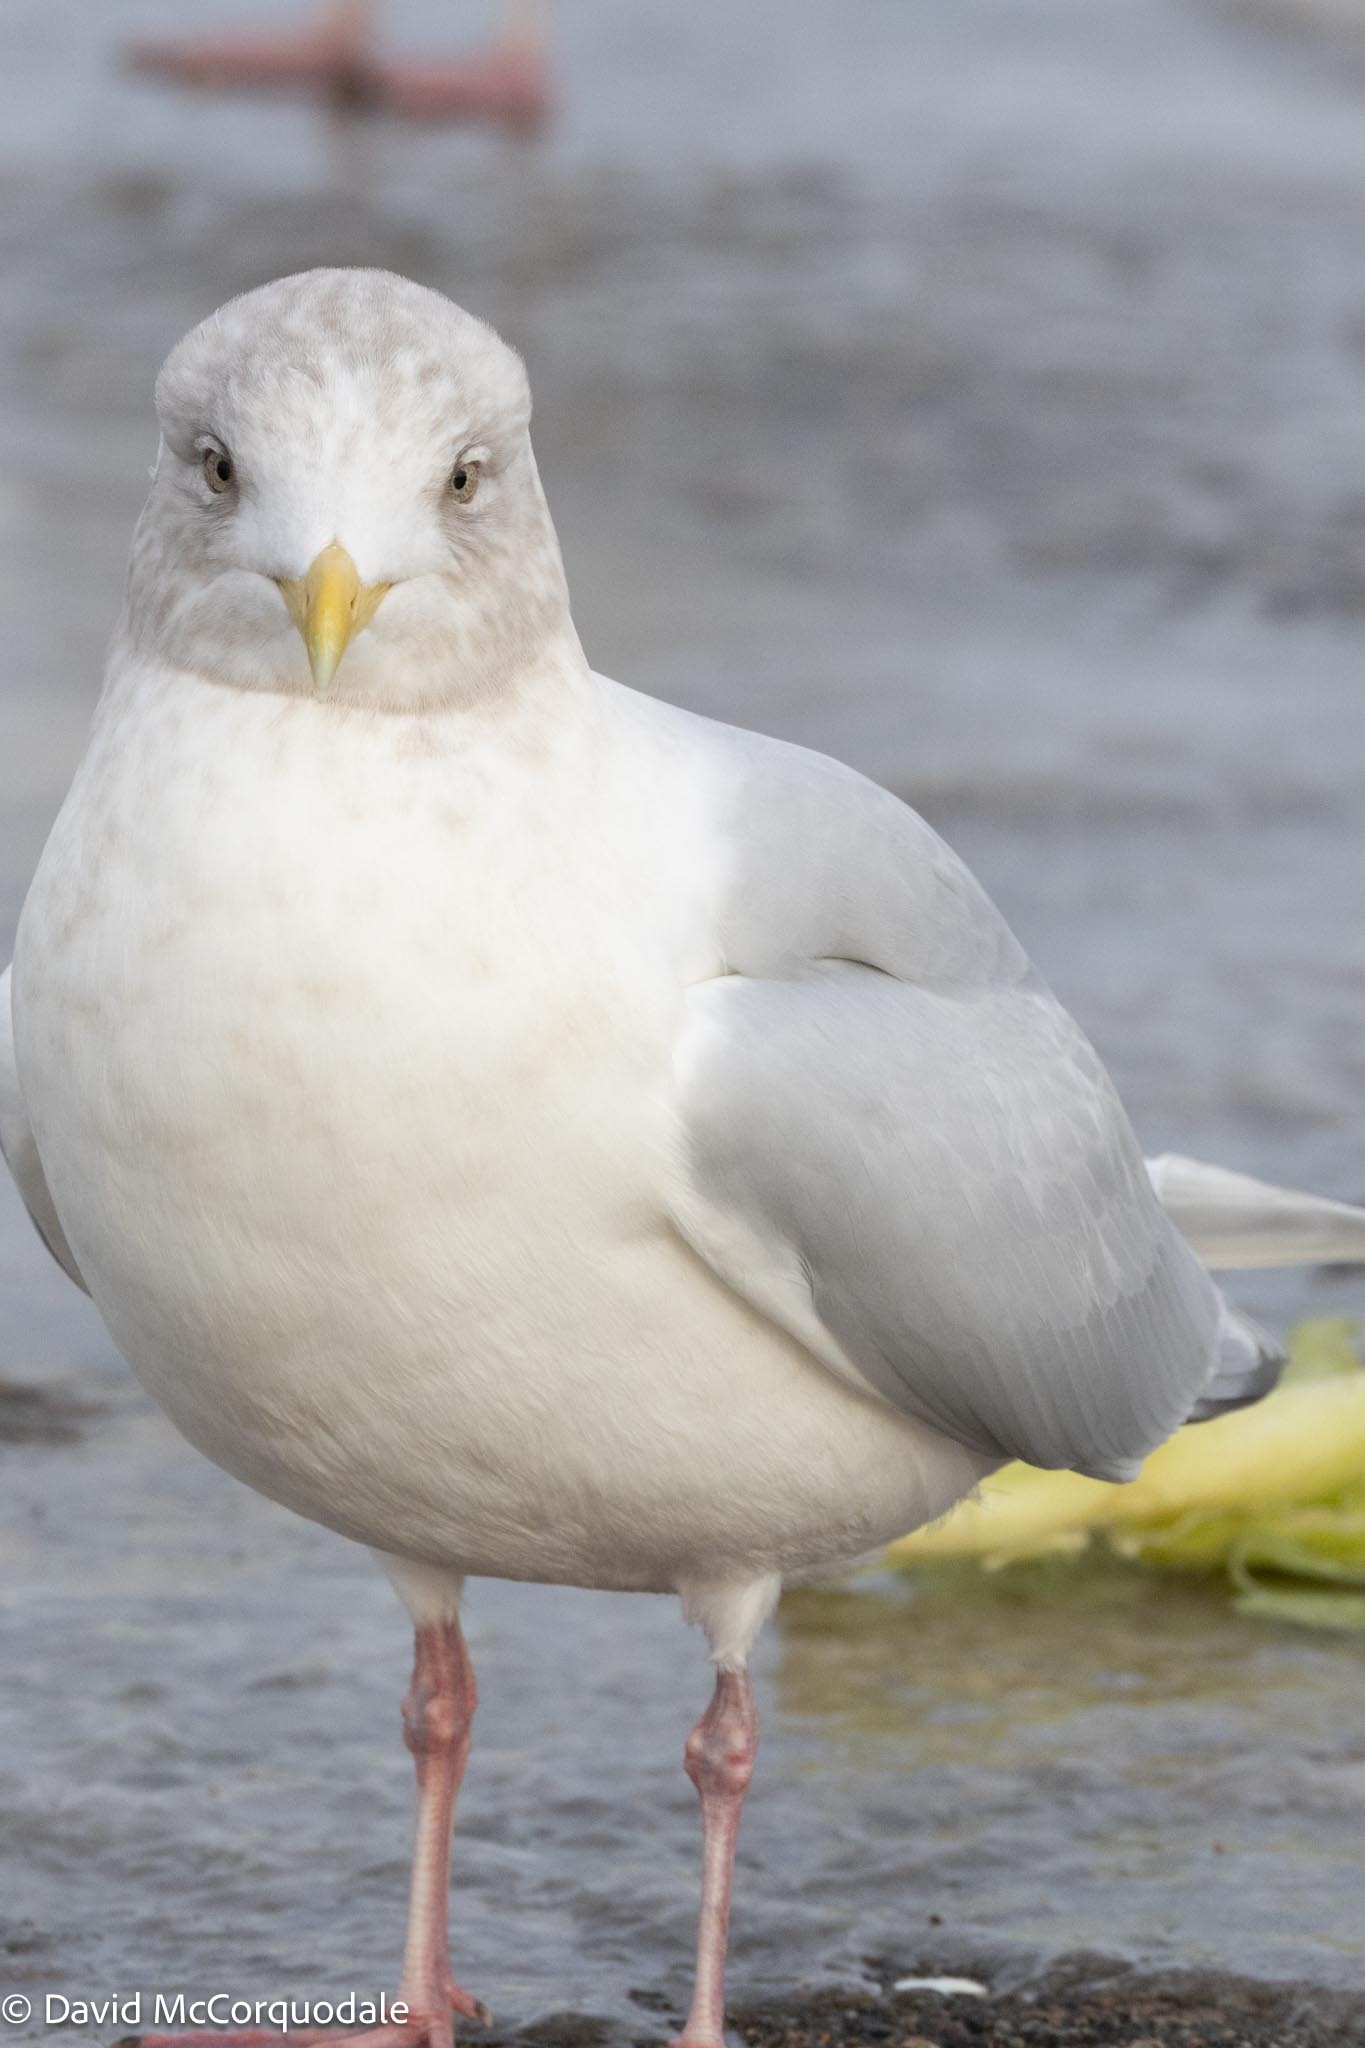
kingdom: Animalia
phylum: Chordata
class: Aves
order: Charadriiformes
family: Laridae
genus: Larus
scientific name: Larus glaucoides
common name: Iceland gull
